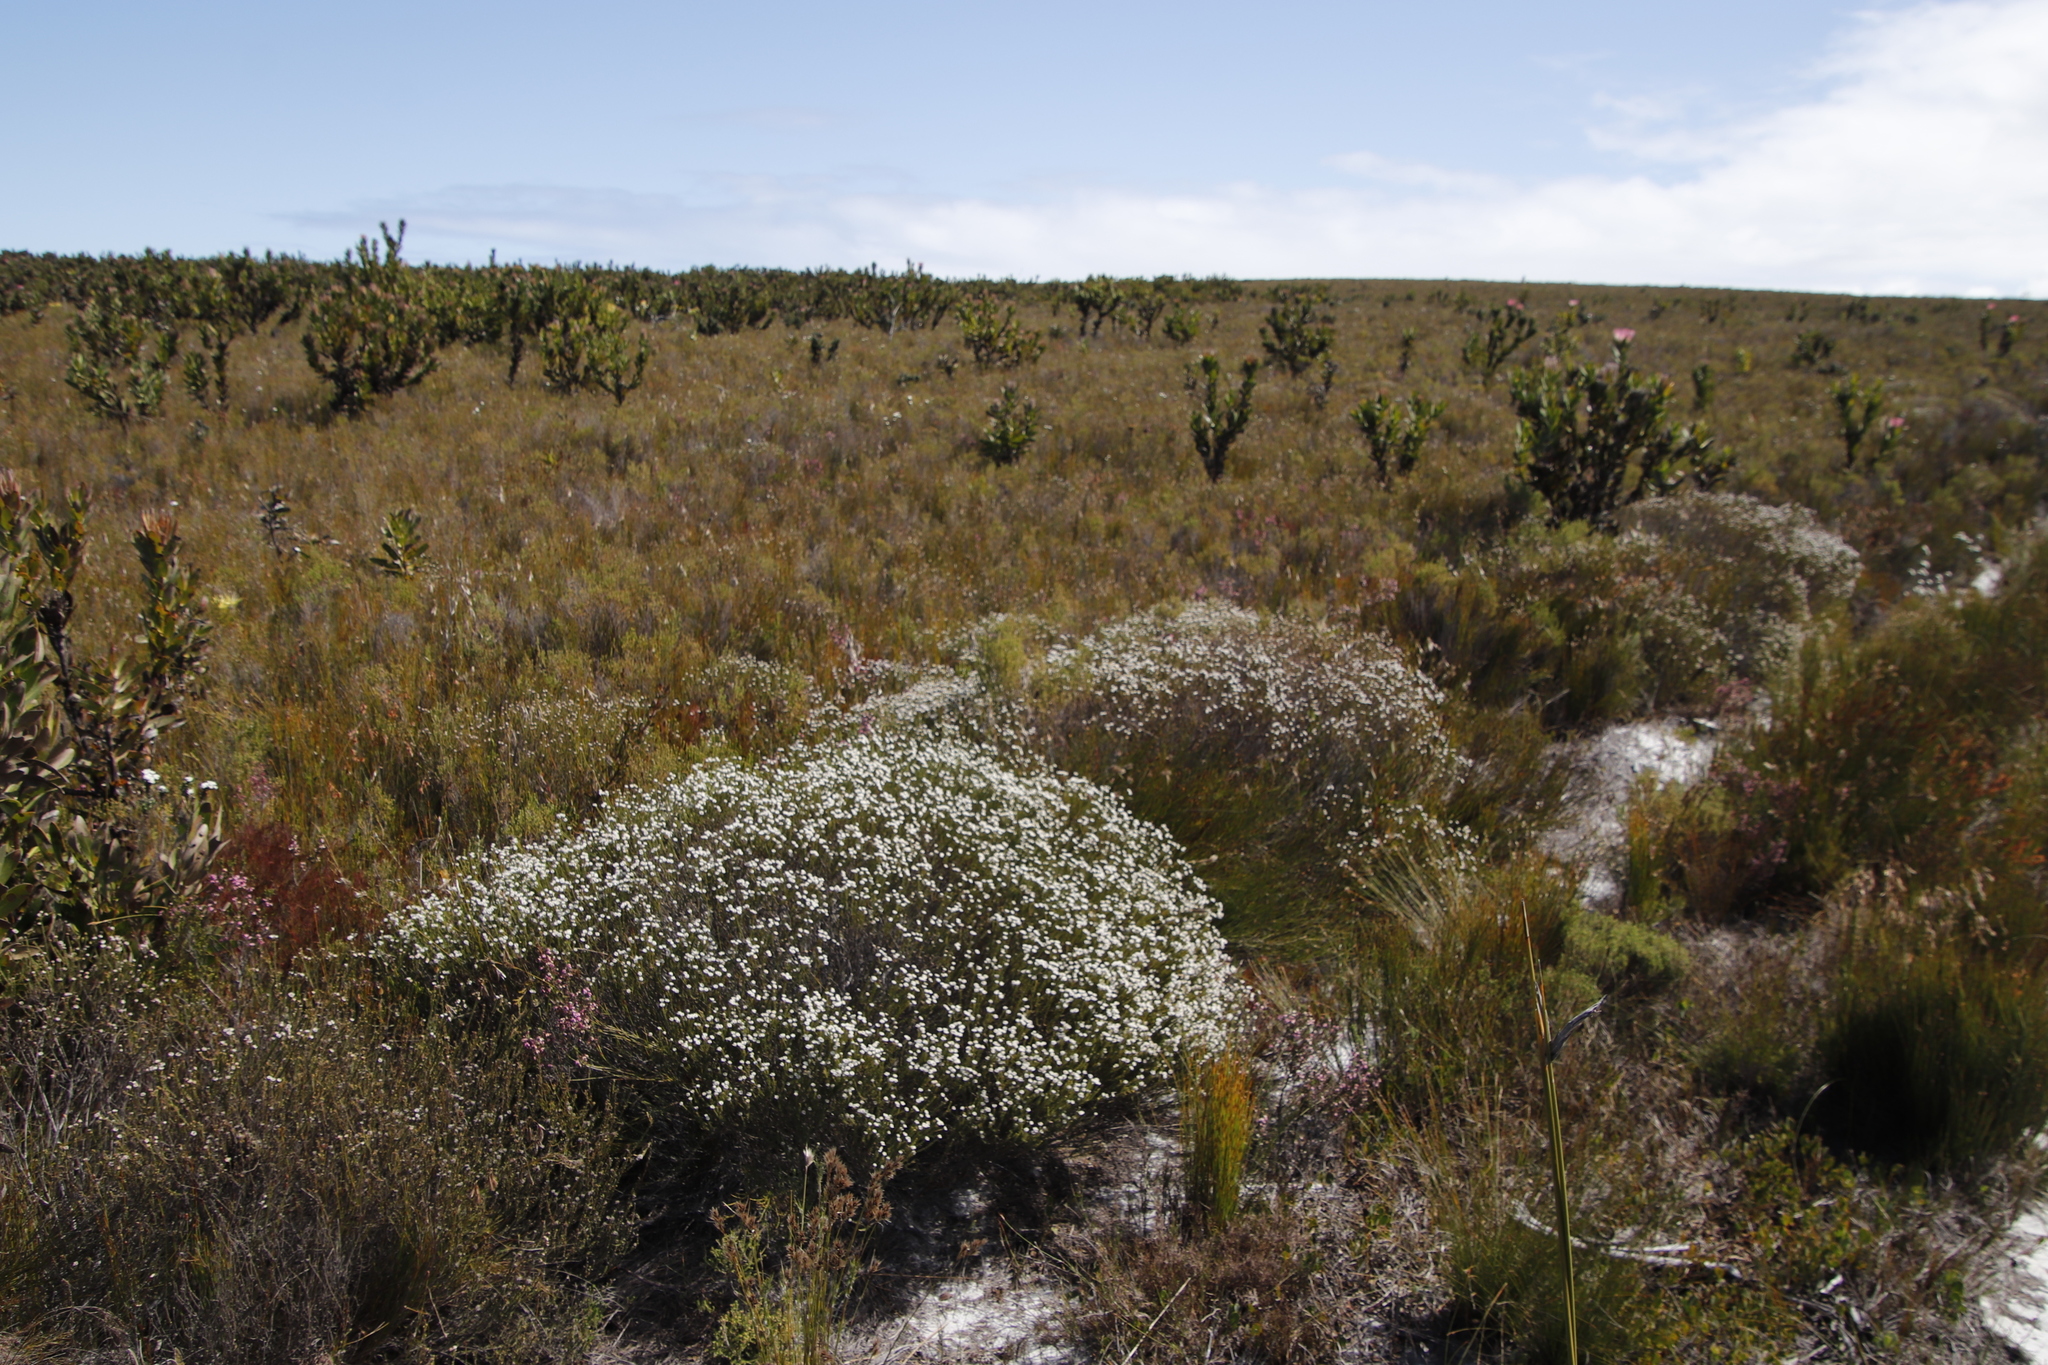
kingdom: Plantae
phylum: Tracheophyta
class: Magnoliopsida
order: Bruniales
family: Bruniaceae
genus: Staavia
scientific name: Staavia radiata
